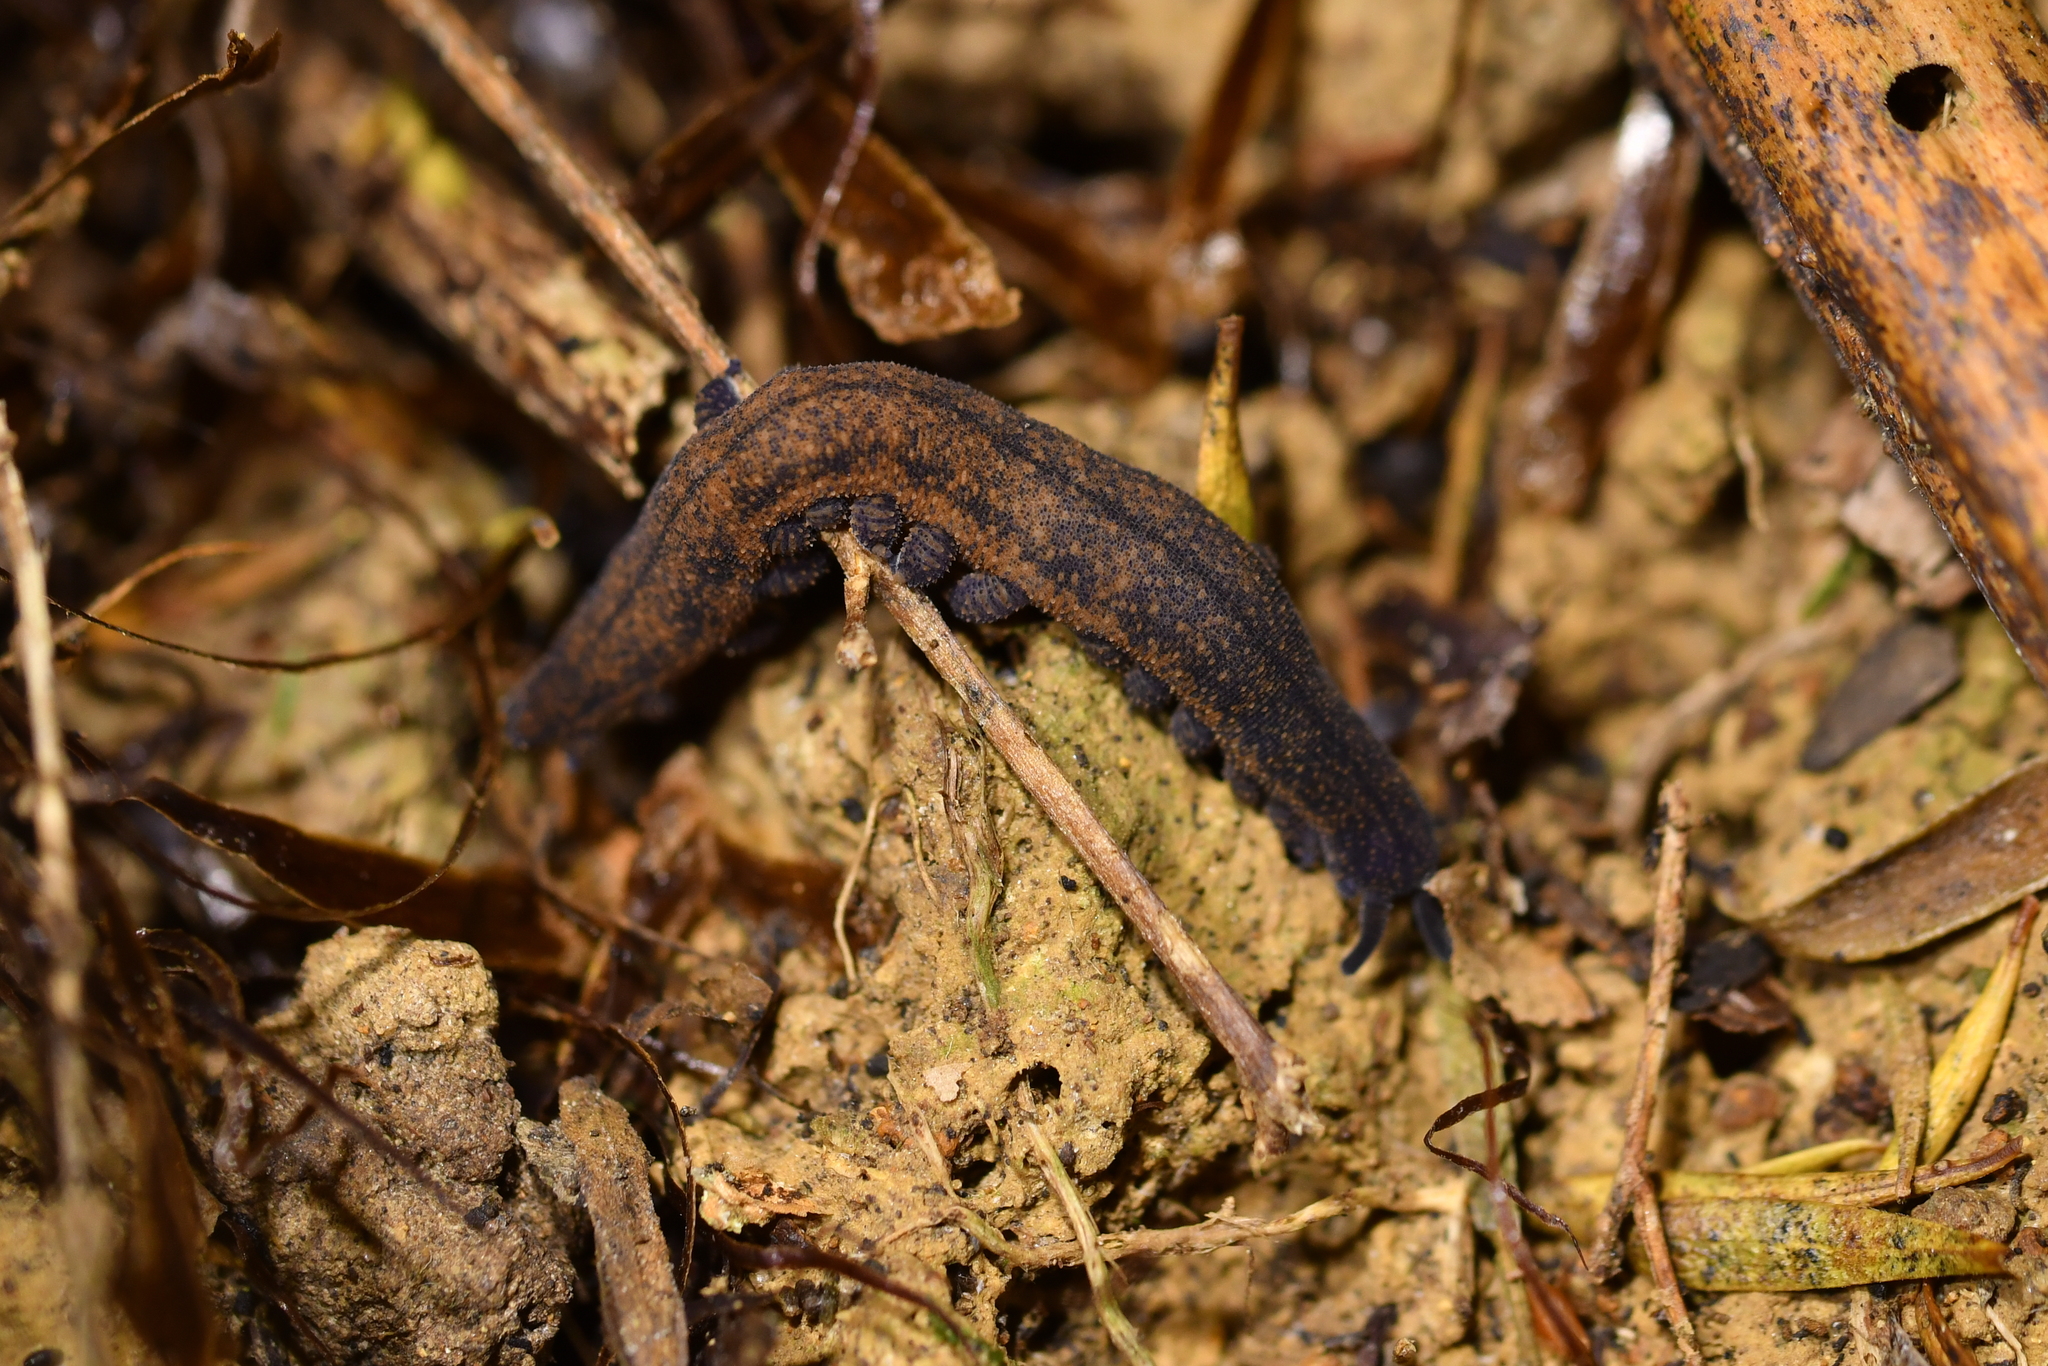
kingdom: Animalia
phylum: Onychophora
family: Peripatopsidae
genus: Peripatoides
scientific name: Peripatoides
